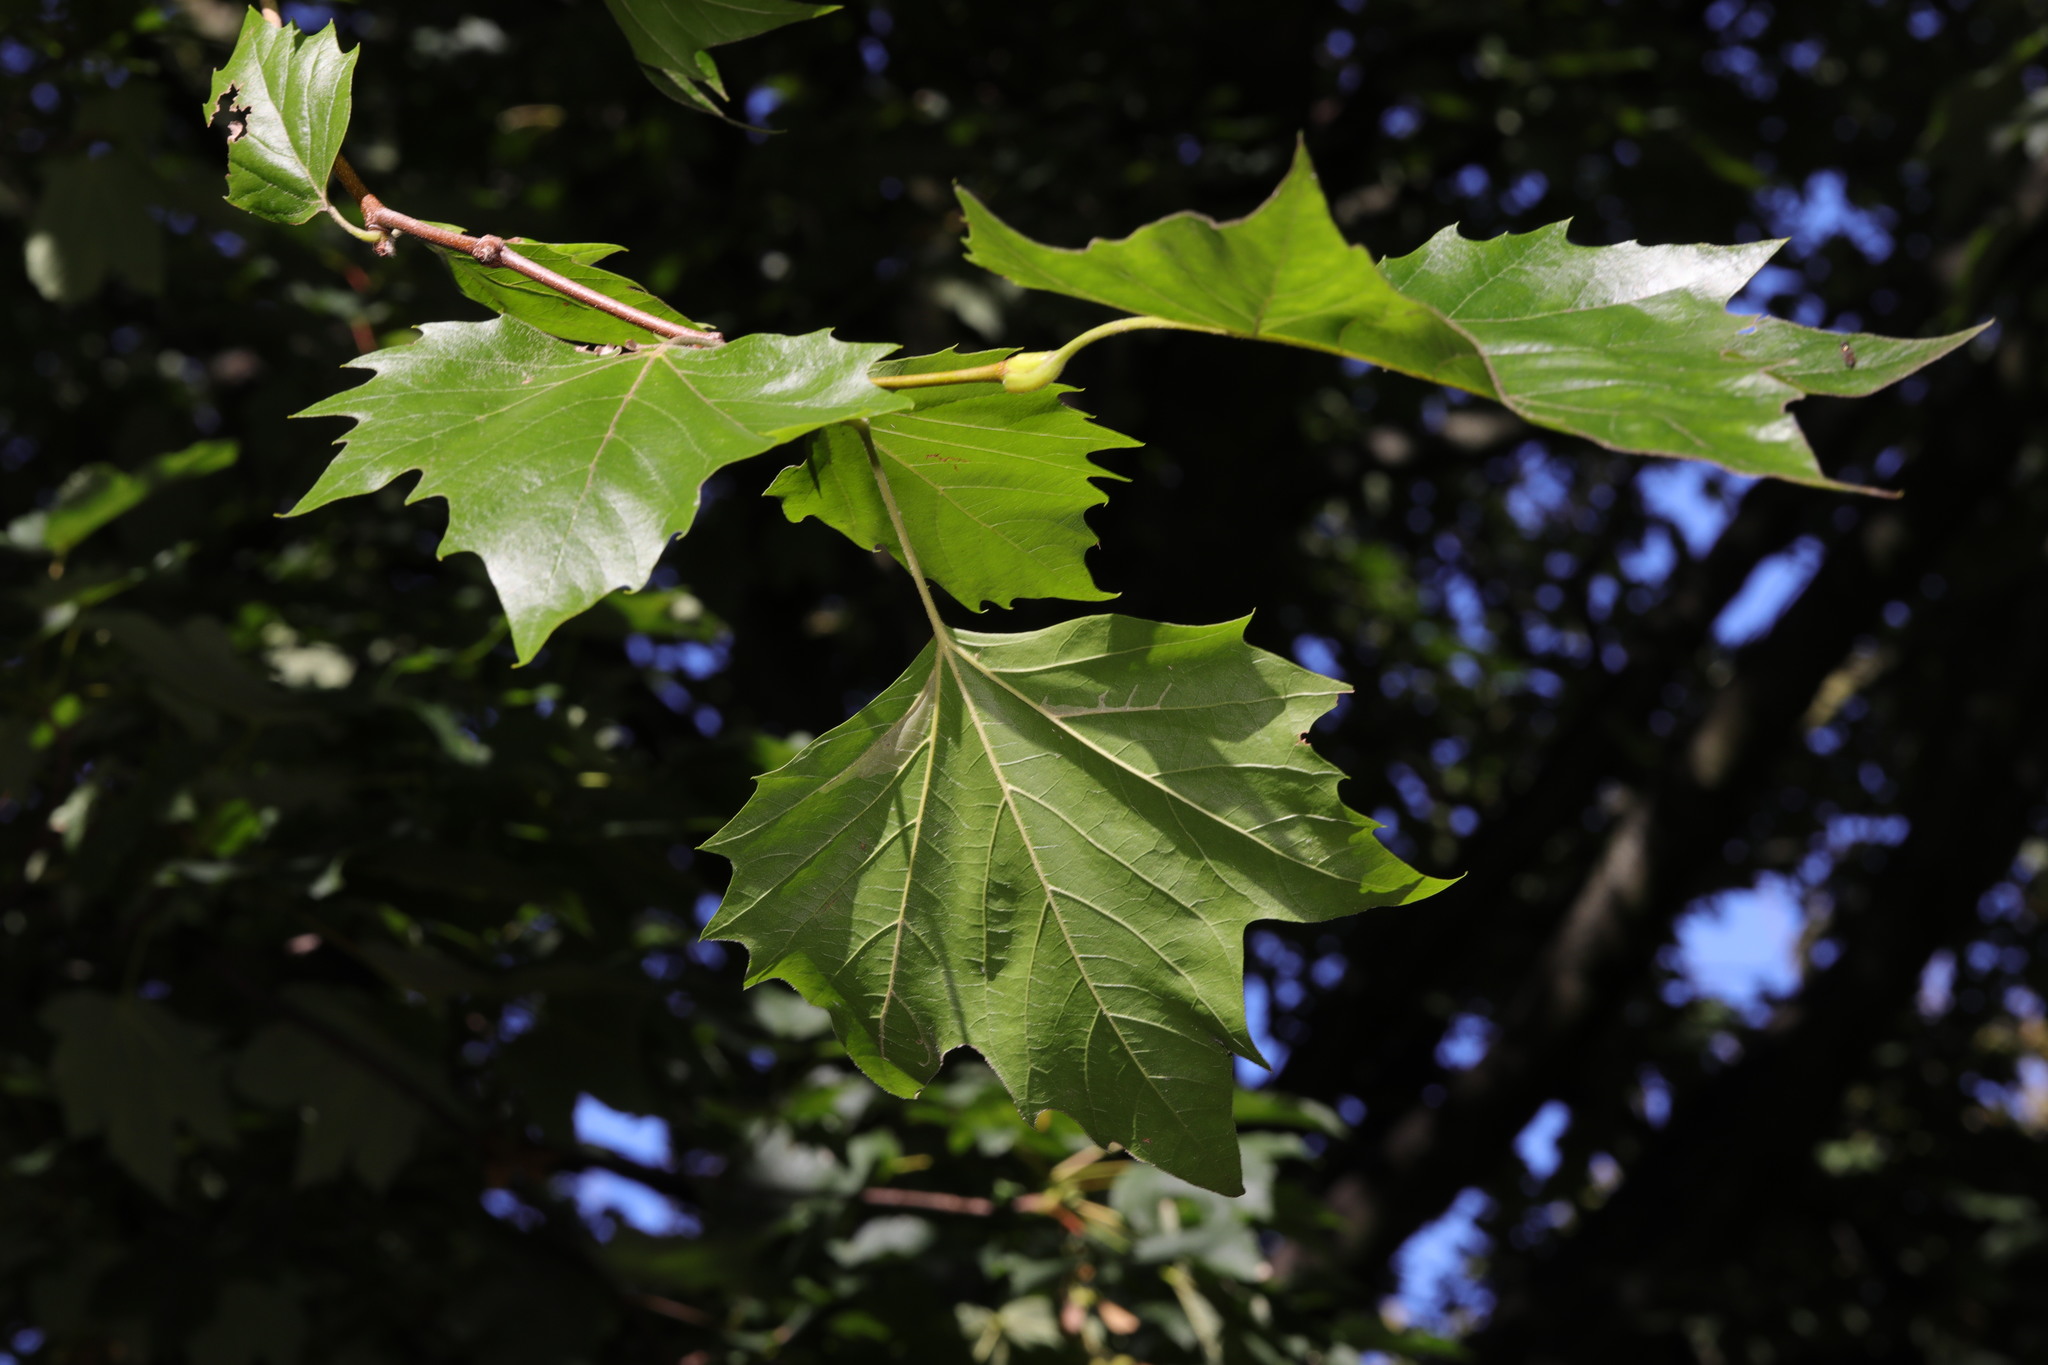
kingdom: Plantae
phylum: Tracheophyta
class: Magnoliopsida
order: Proteales
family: Platanaceae
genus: Platanus
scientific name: Platanus hispanica
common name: London plane
